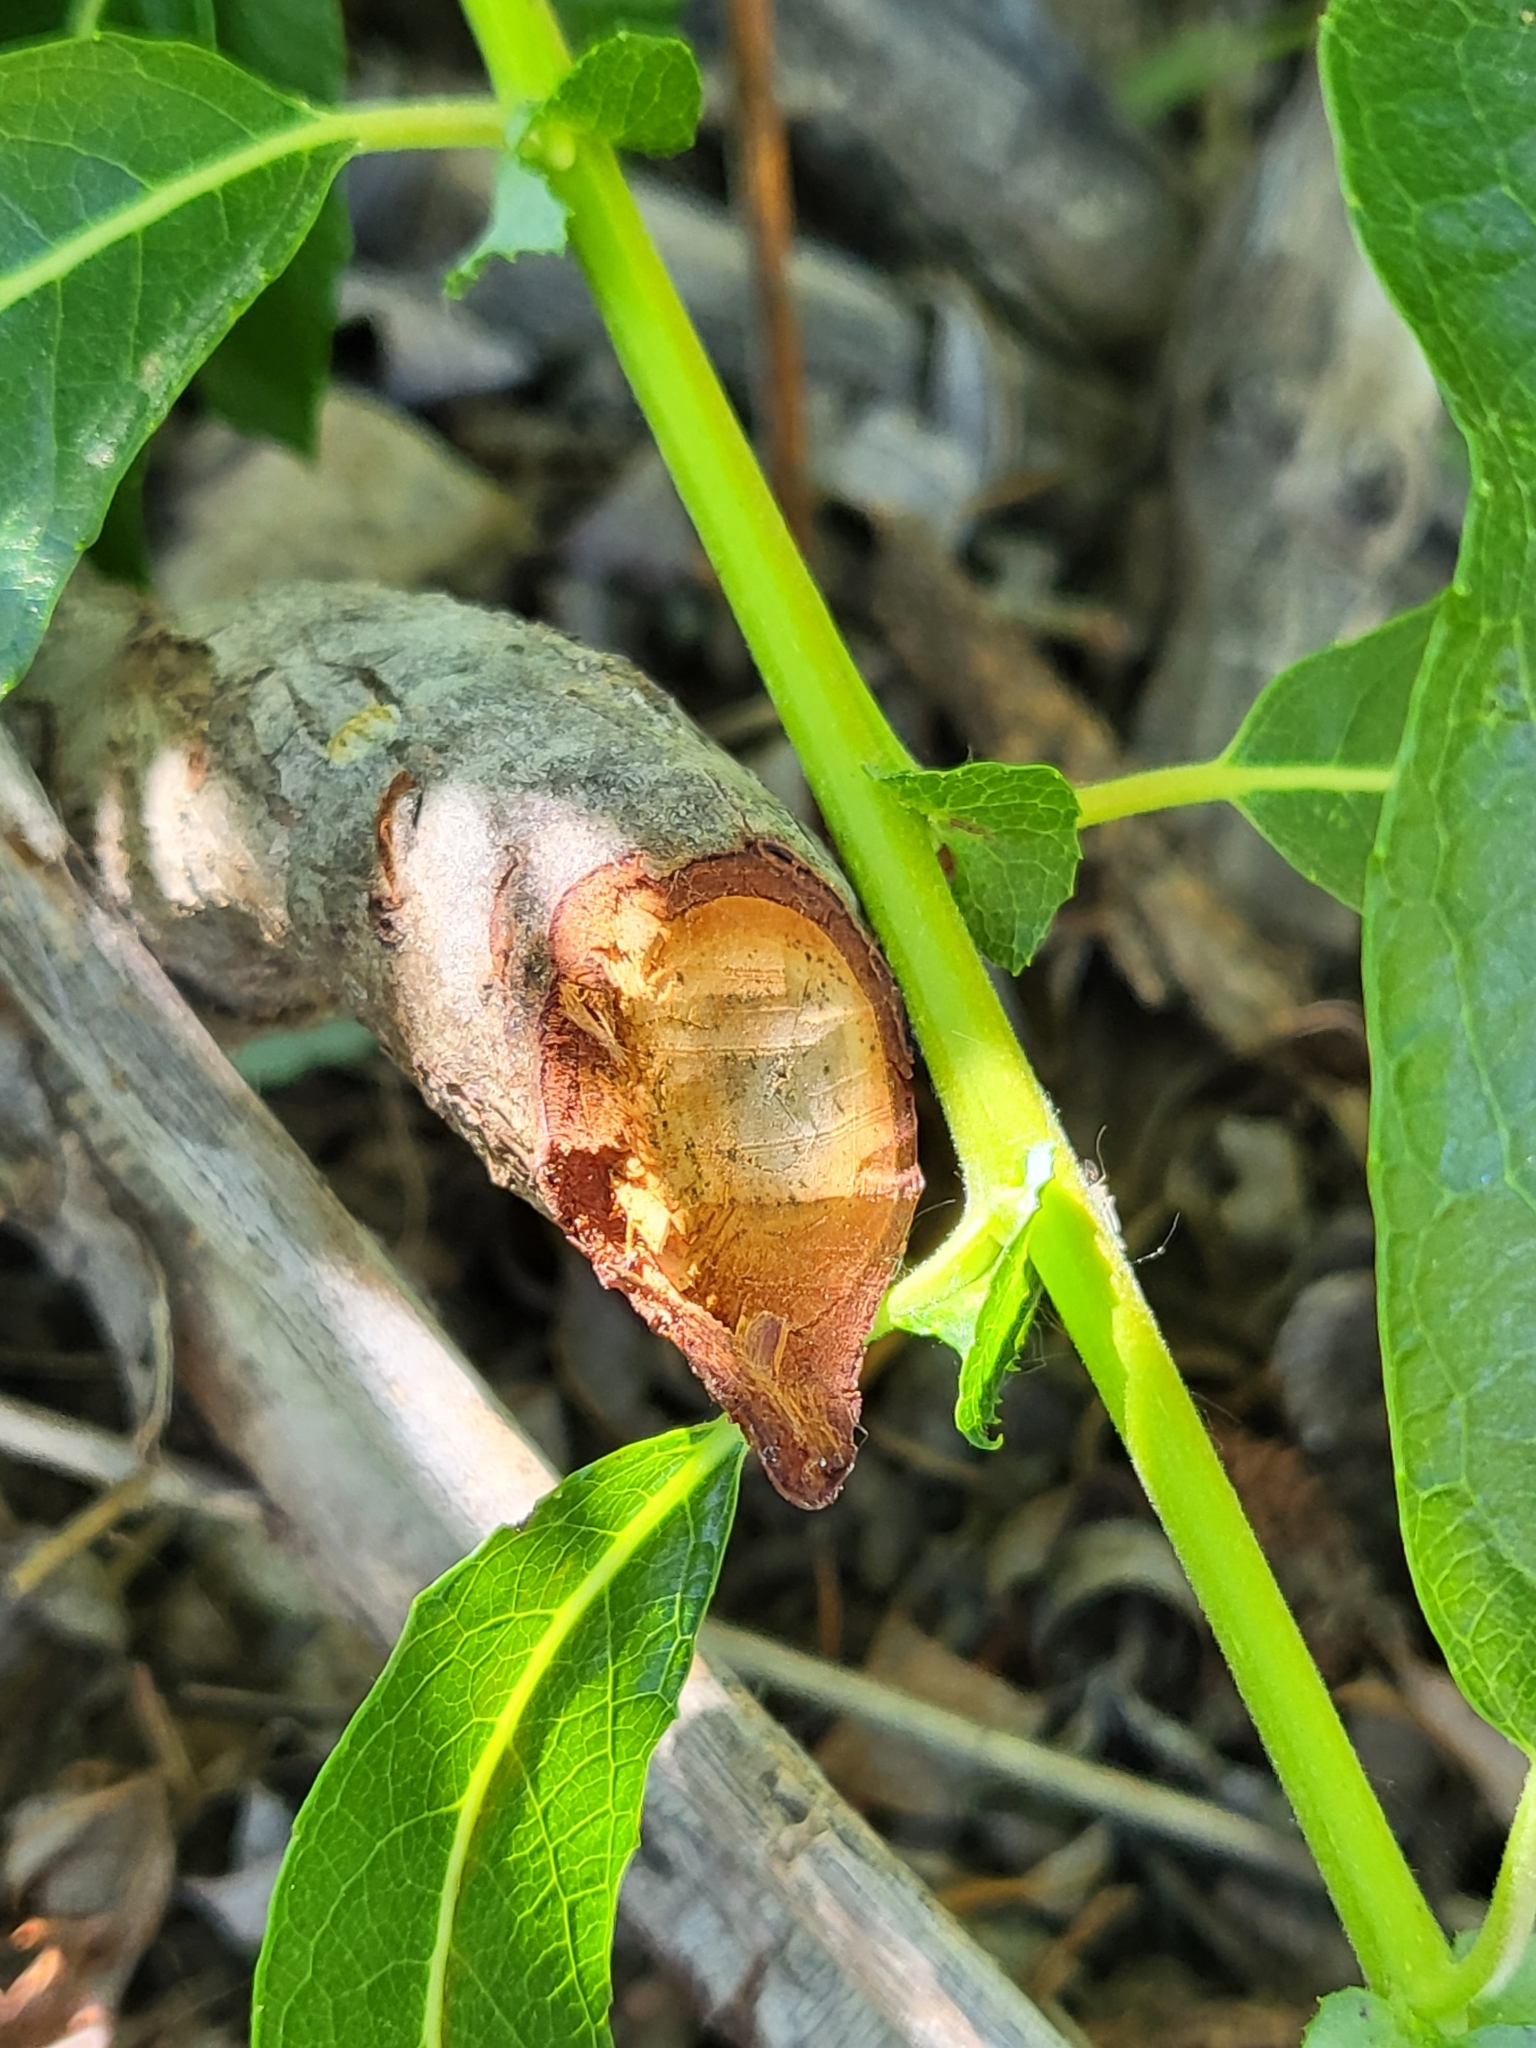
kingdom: Animalia
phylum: Chordata
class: Mammalia
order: Rodentia
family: Castoridae
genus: Castor
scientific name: Castor canadensis
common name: American beaver
